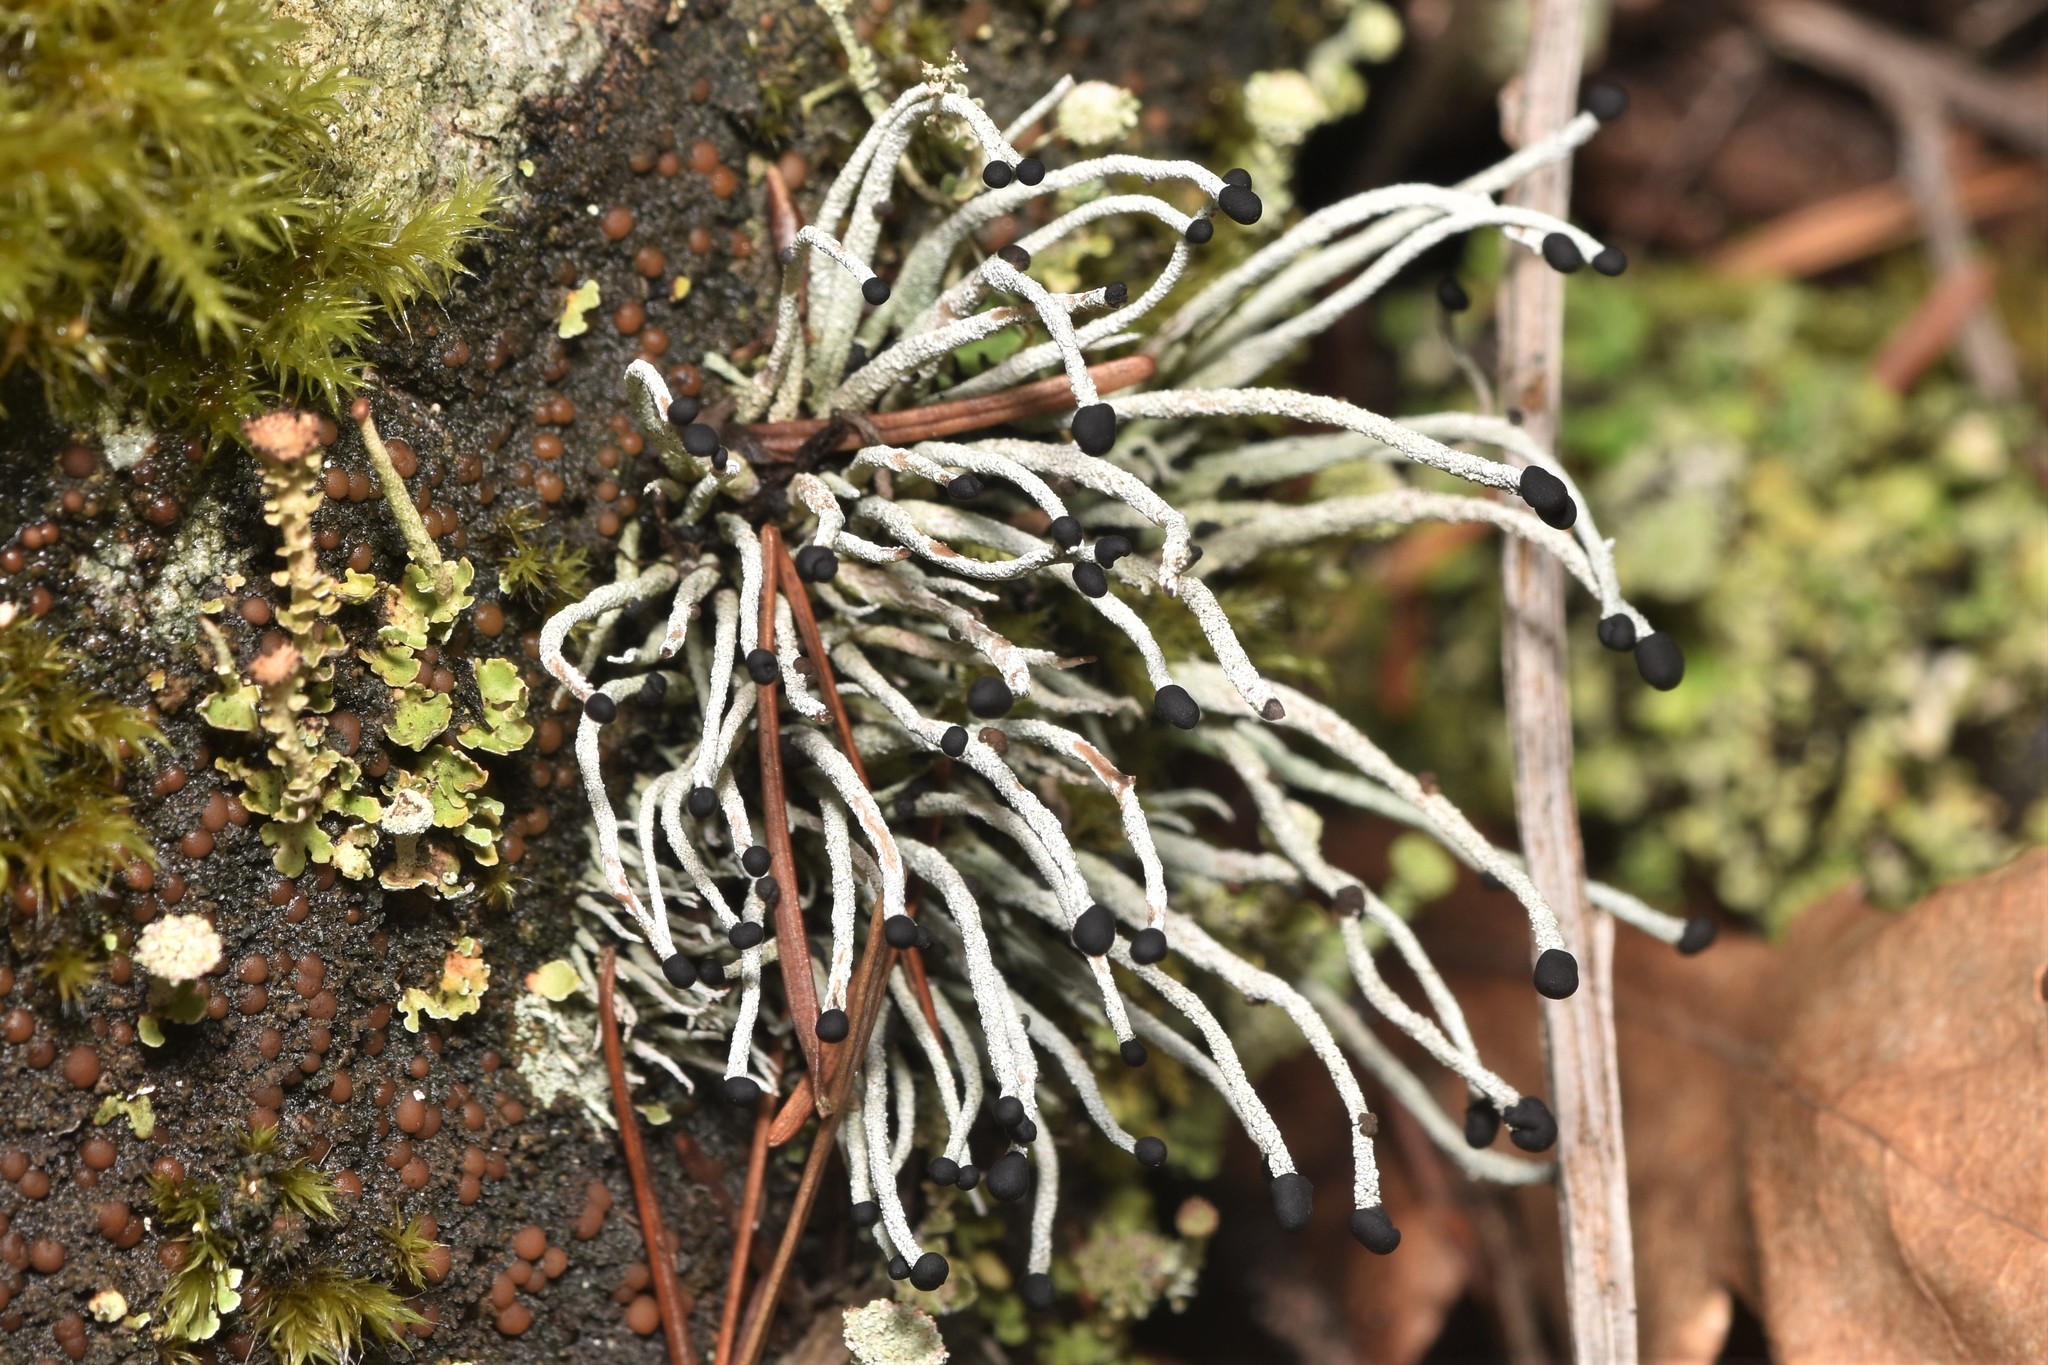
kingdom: Fungi
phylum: Ascomycota
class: Lecanoromycetes
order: Lecanorales
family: Cladoniaceae
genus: Pilophorus
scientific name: Pilophorus acicularis
